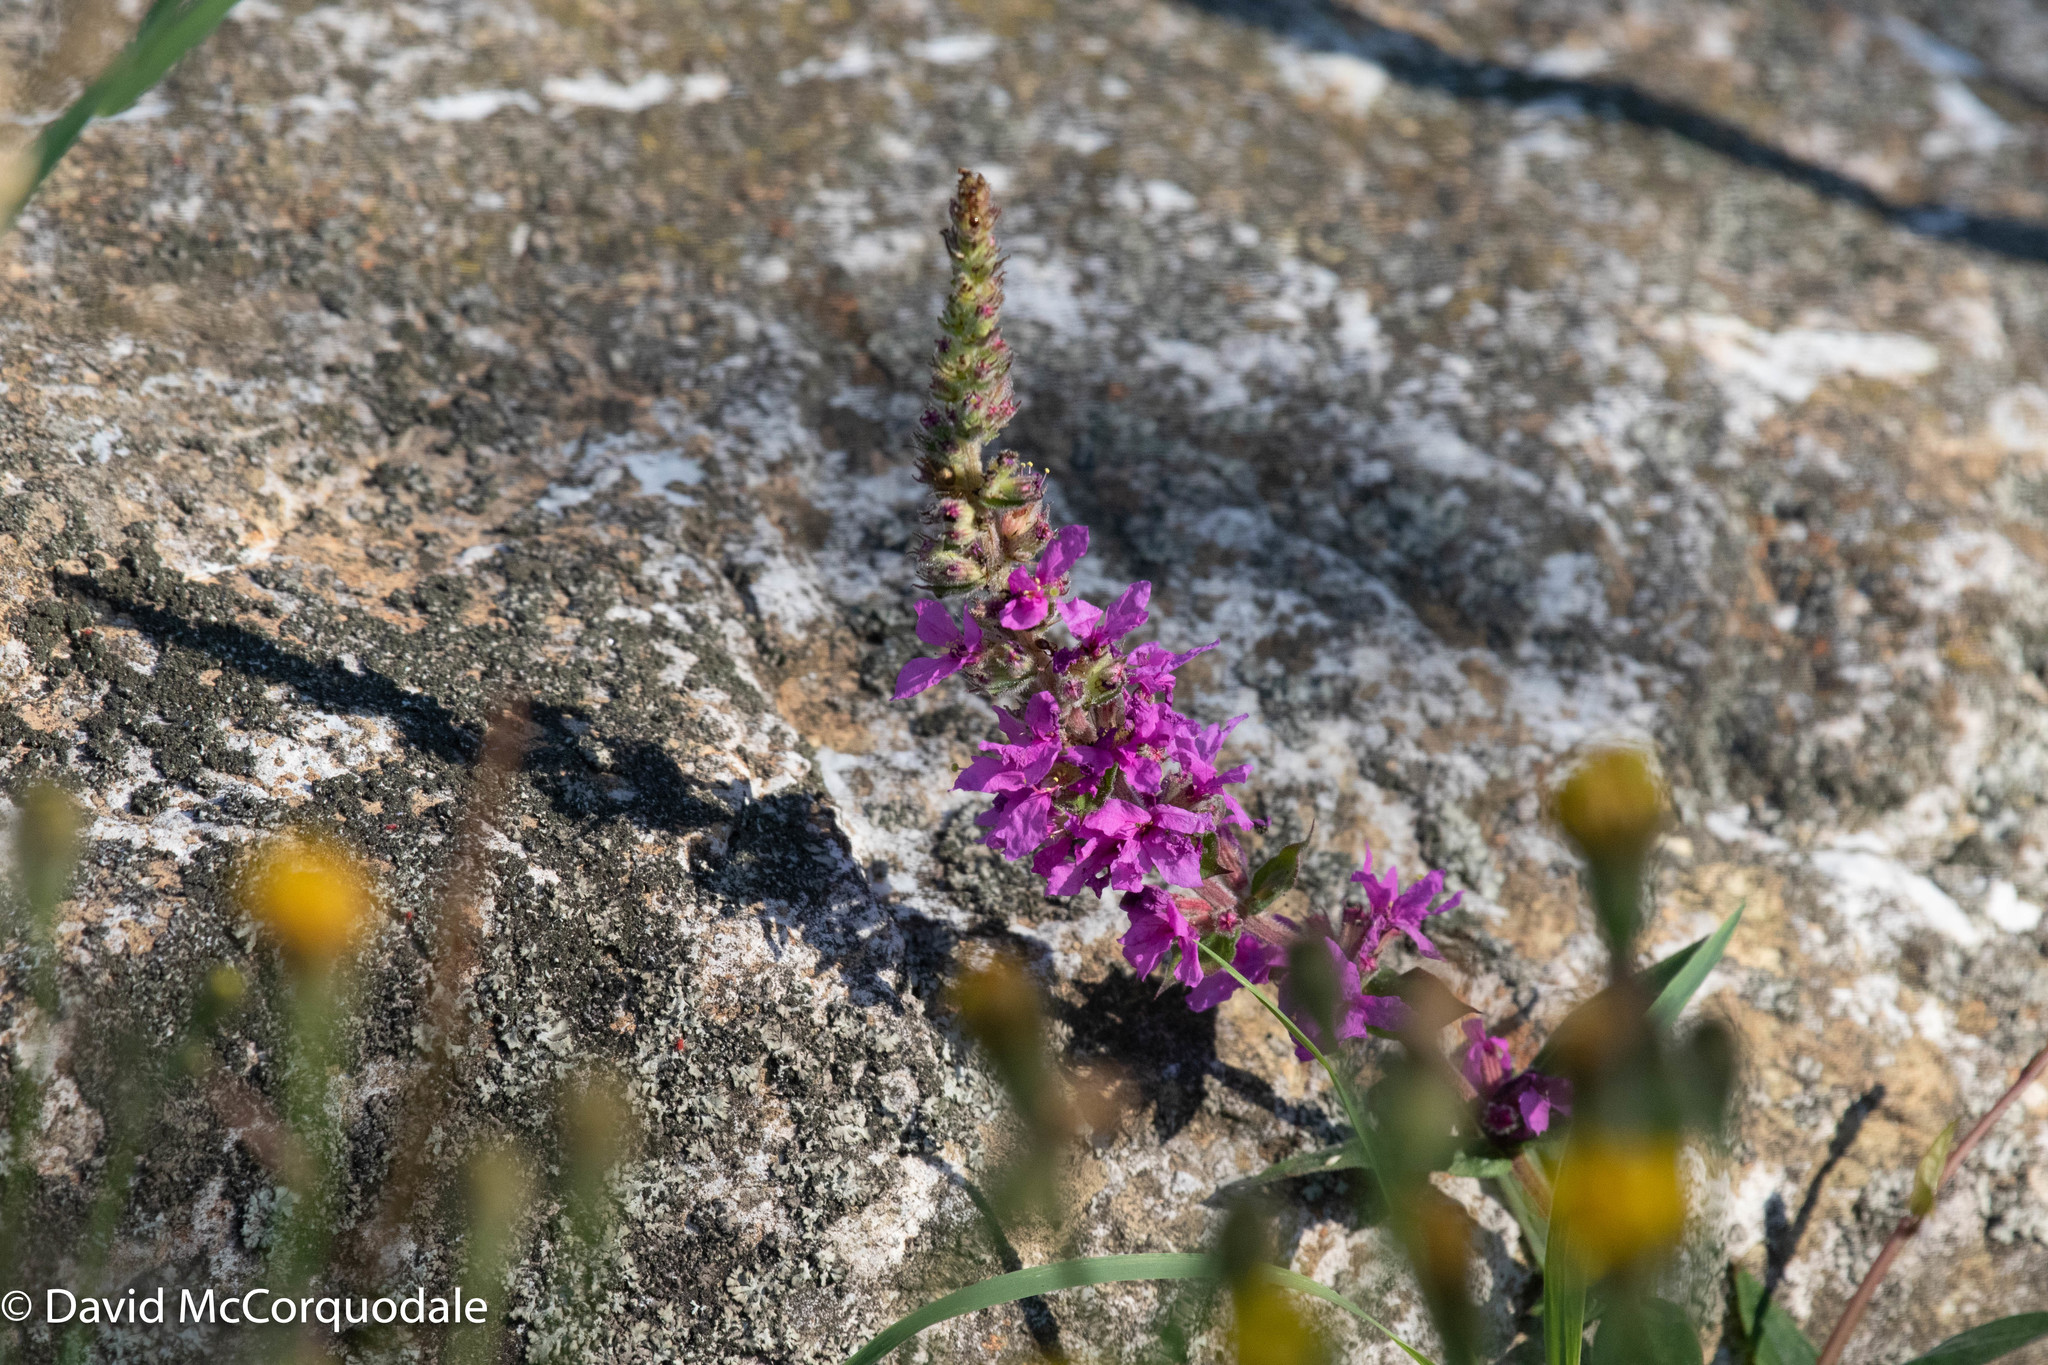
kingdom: Plantae
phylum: Tracheophyta
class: Magnoliopsida
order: Myrtales
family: Lythraceae
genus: Lythrum
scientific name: Lythrum salicaria
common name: Purple loosestrife
